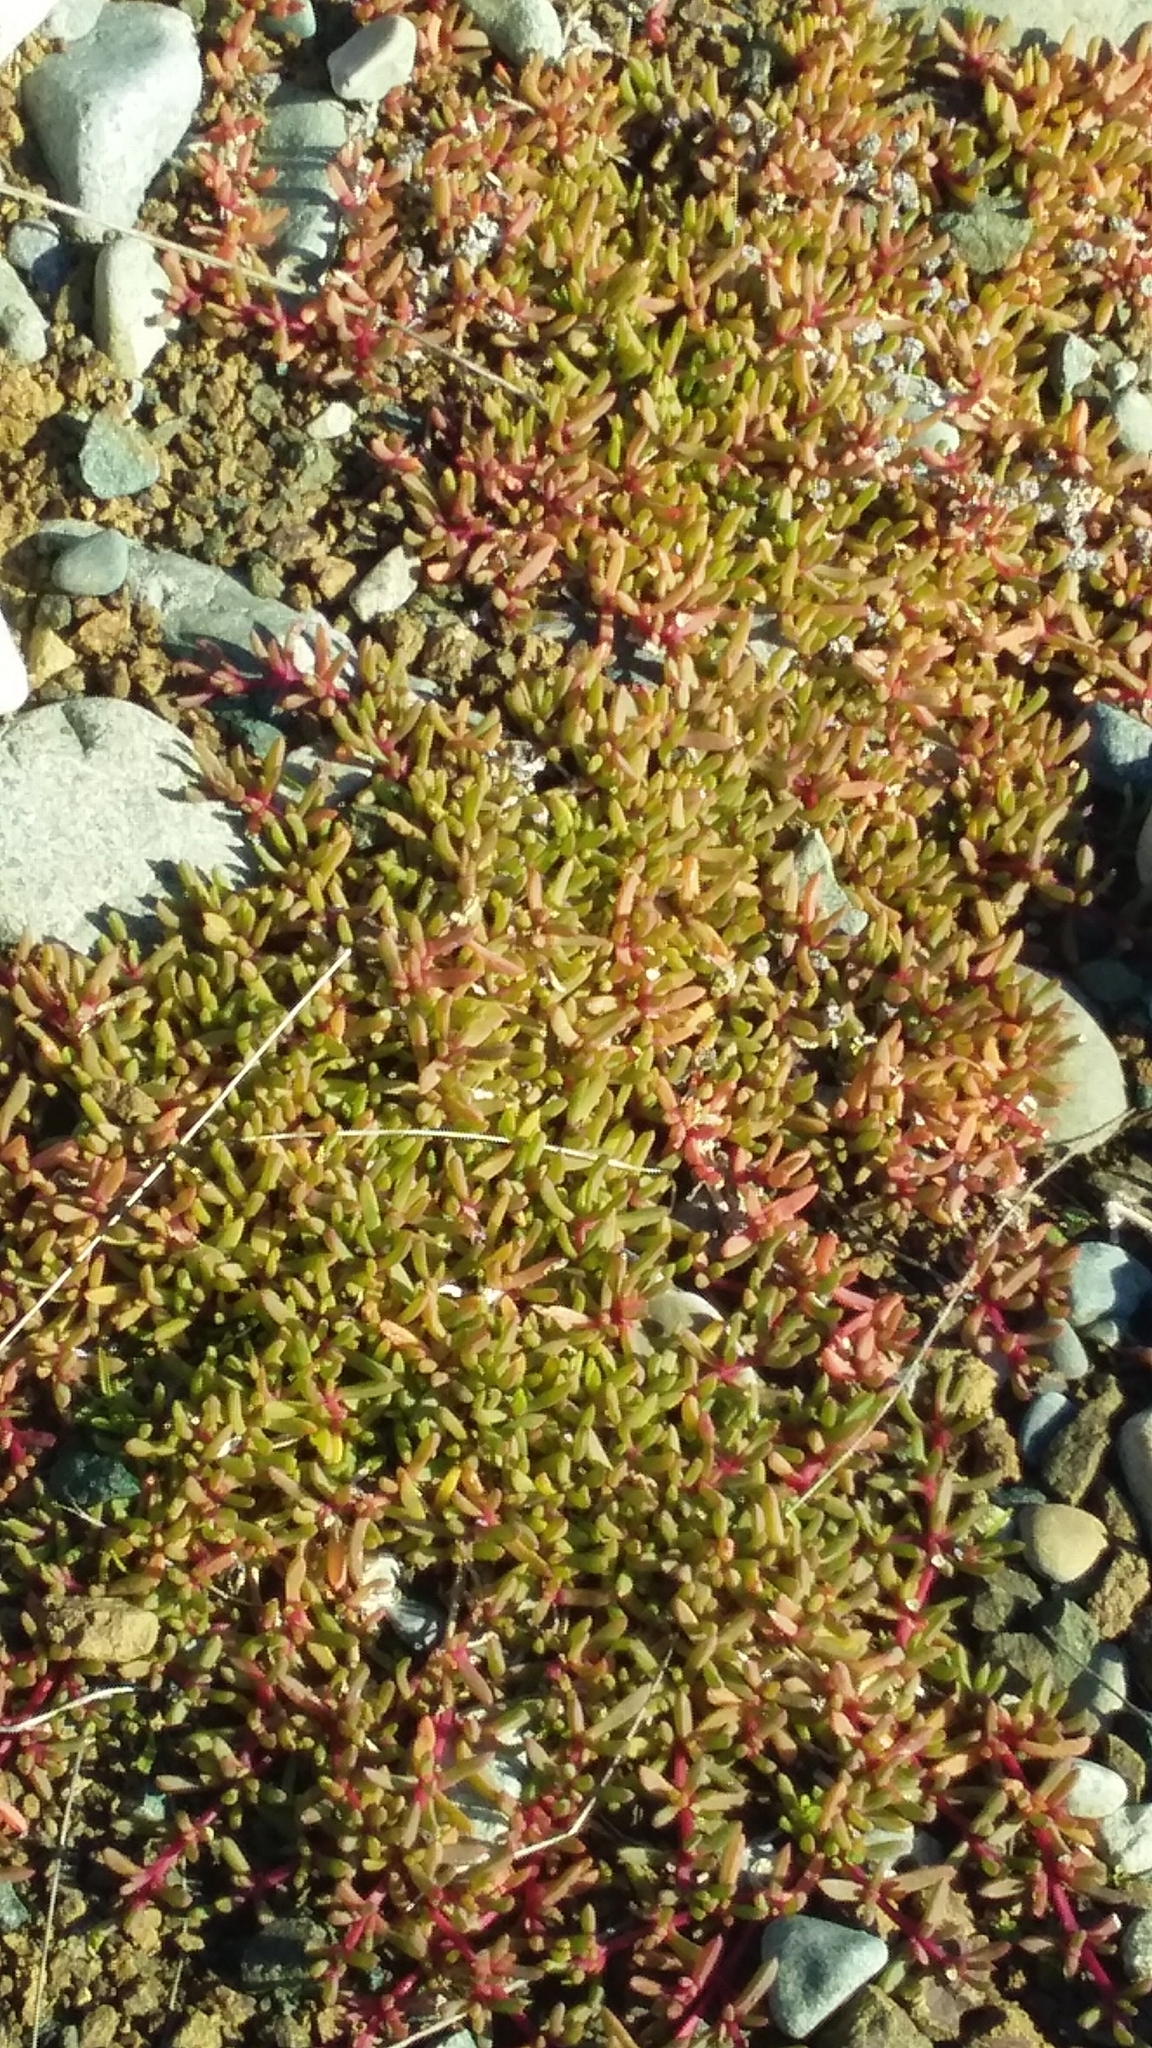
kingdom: Plantae
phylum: Tracheophyta
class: Magnoliopsida
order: Caryophyllales
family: Aizoaceae
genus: Disphyma
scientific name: Disphyma australe
